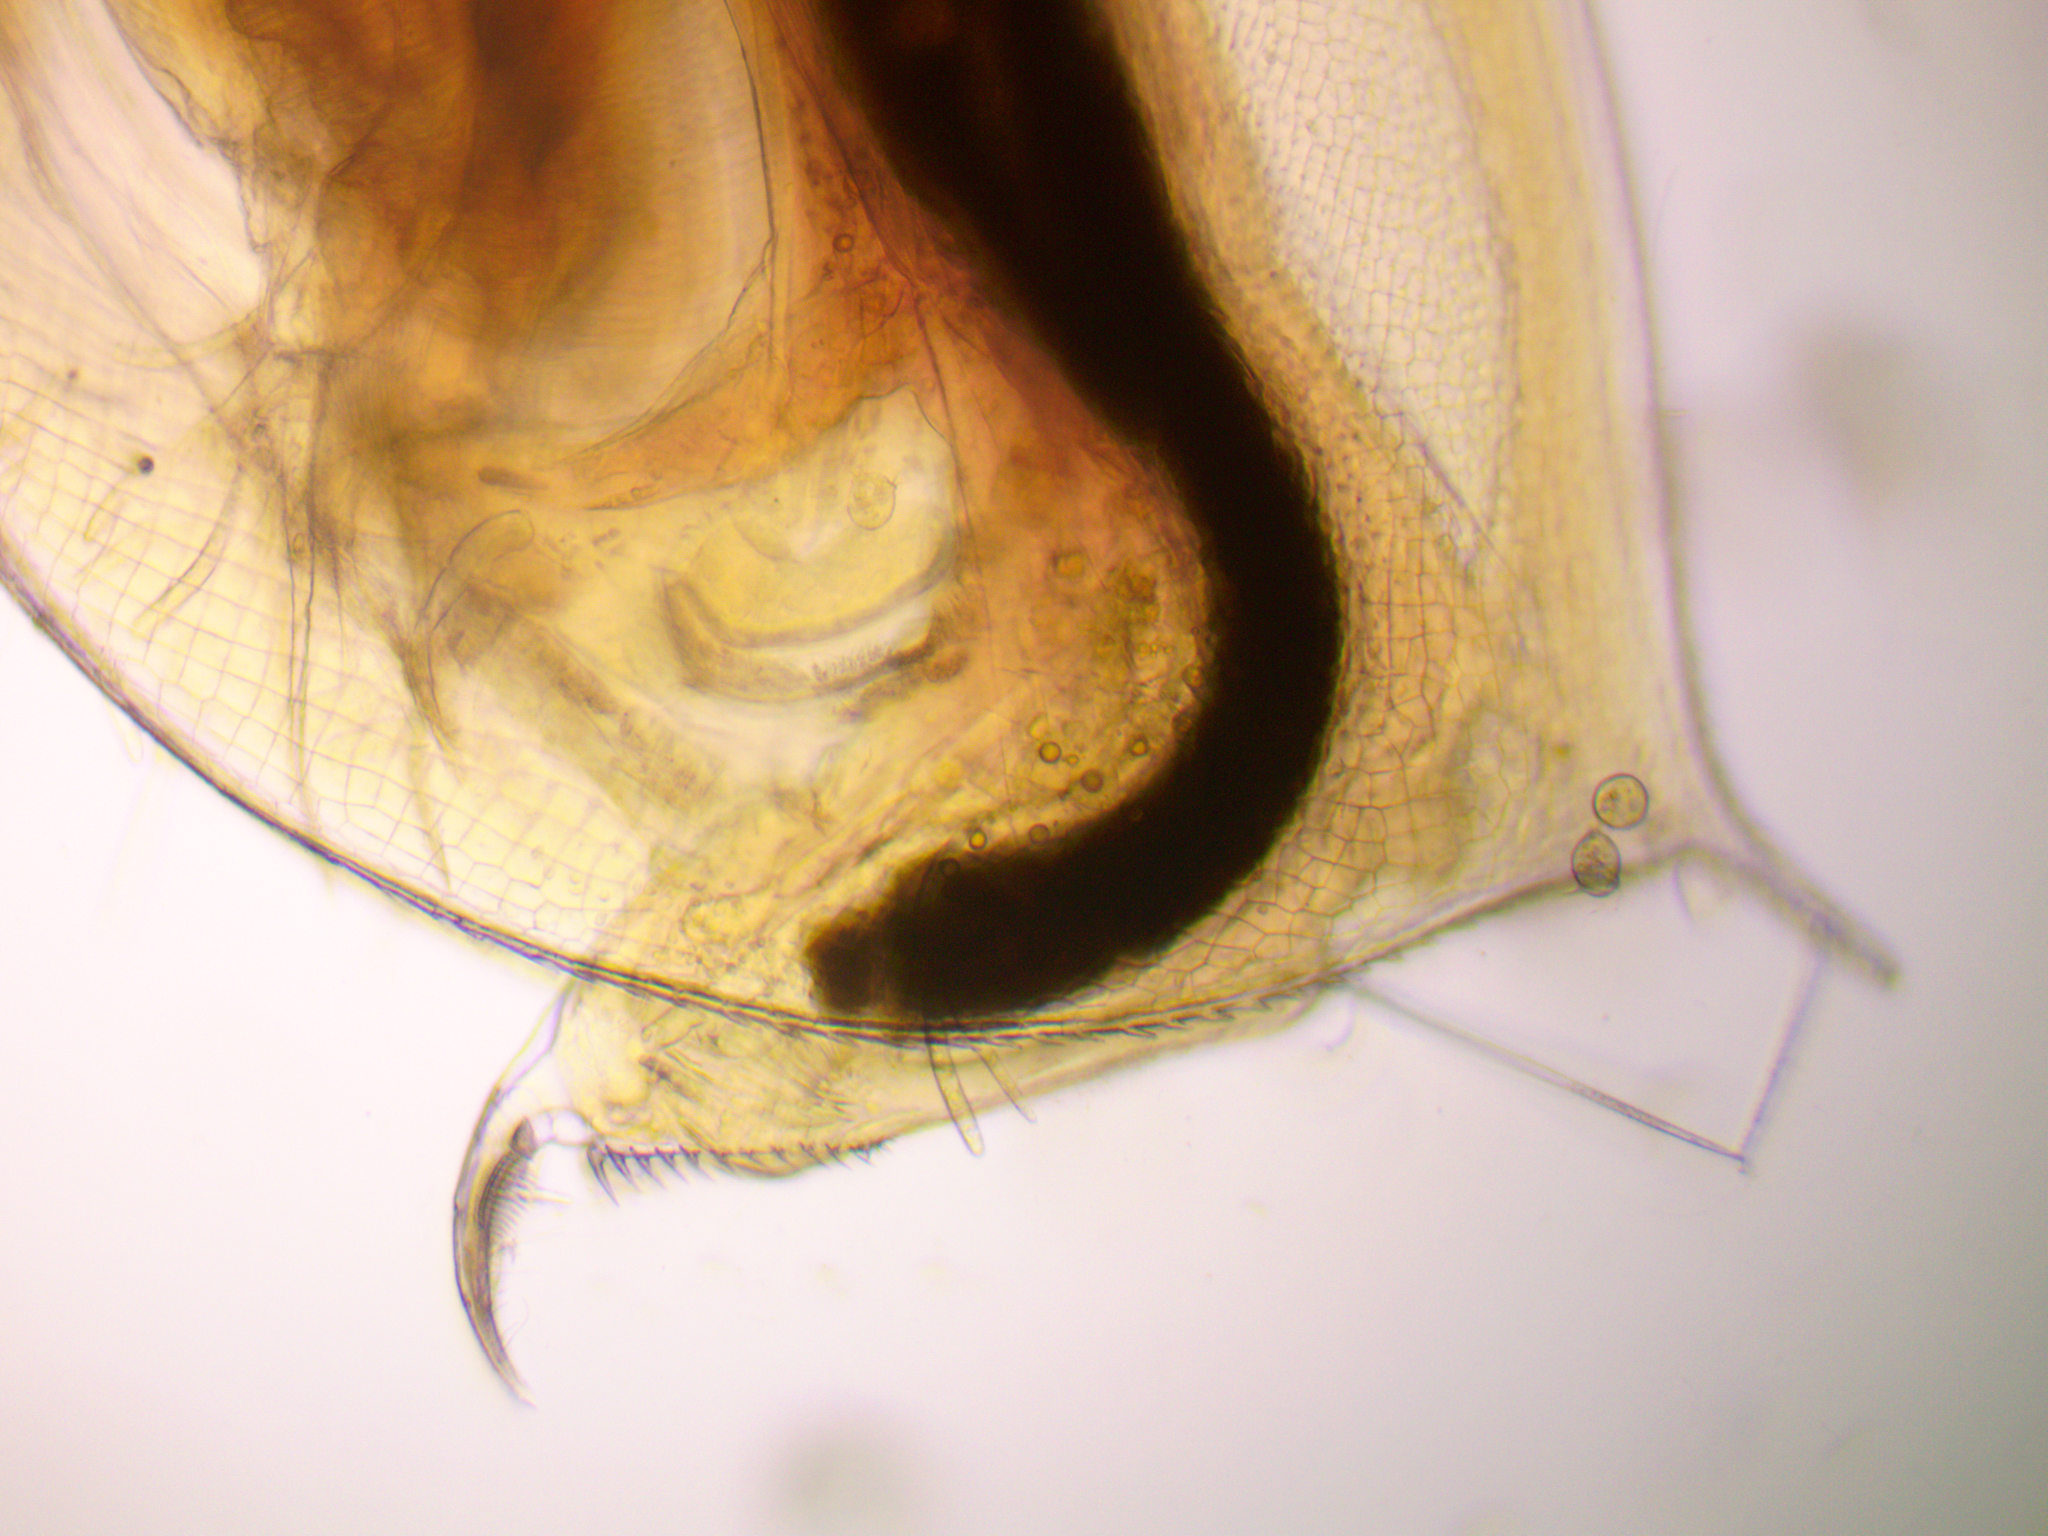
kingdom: Animalia
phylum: Arthropoda
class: Branchiopoda
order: Diplostraca
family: Daphniidae
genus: Daphnia
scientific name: Daphnia curvirostris
